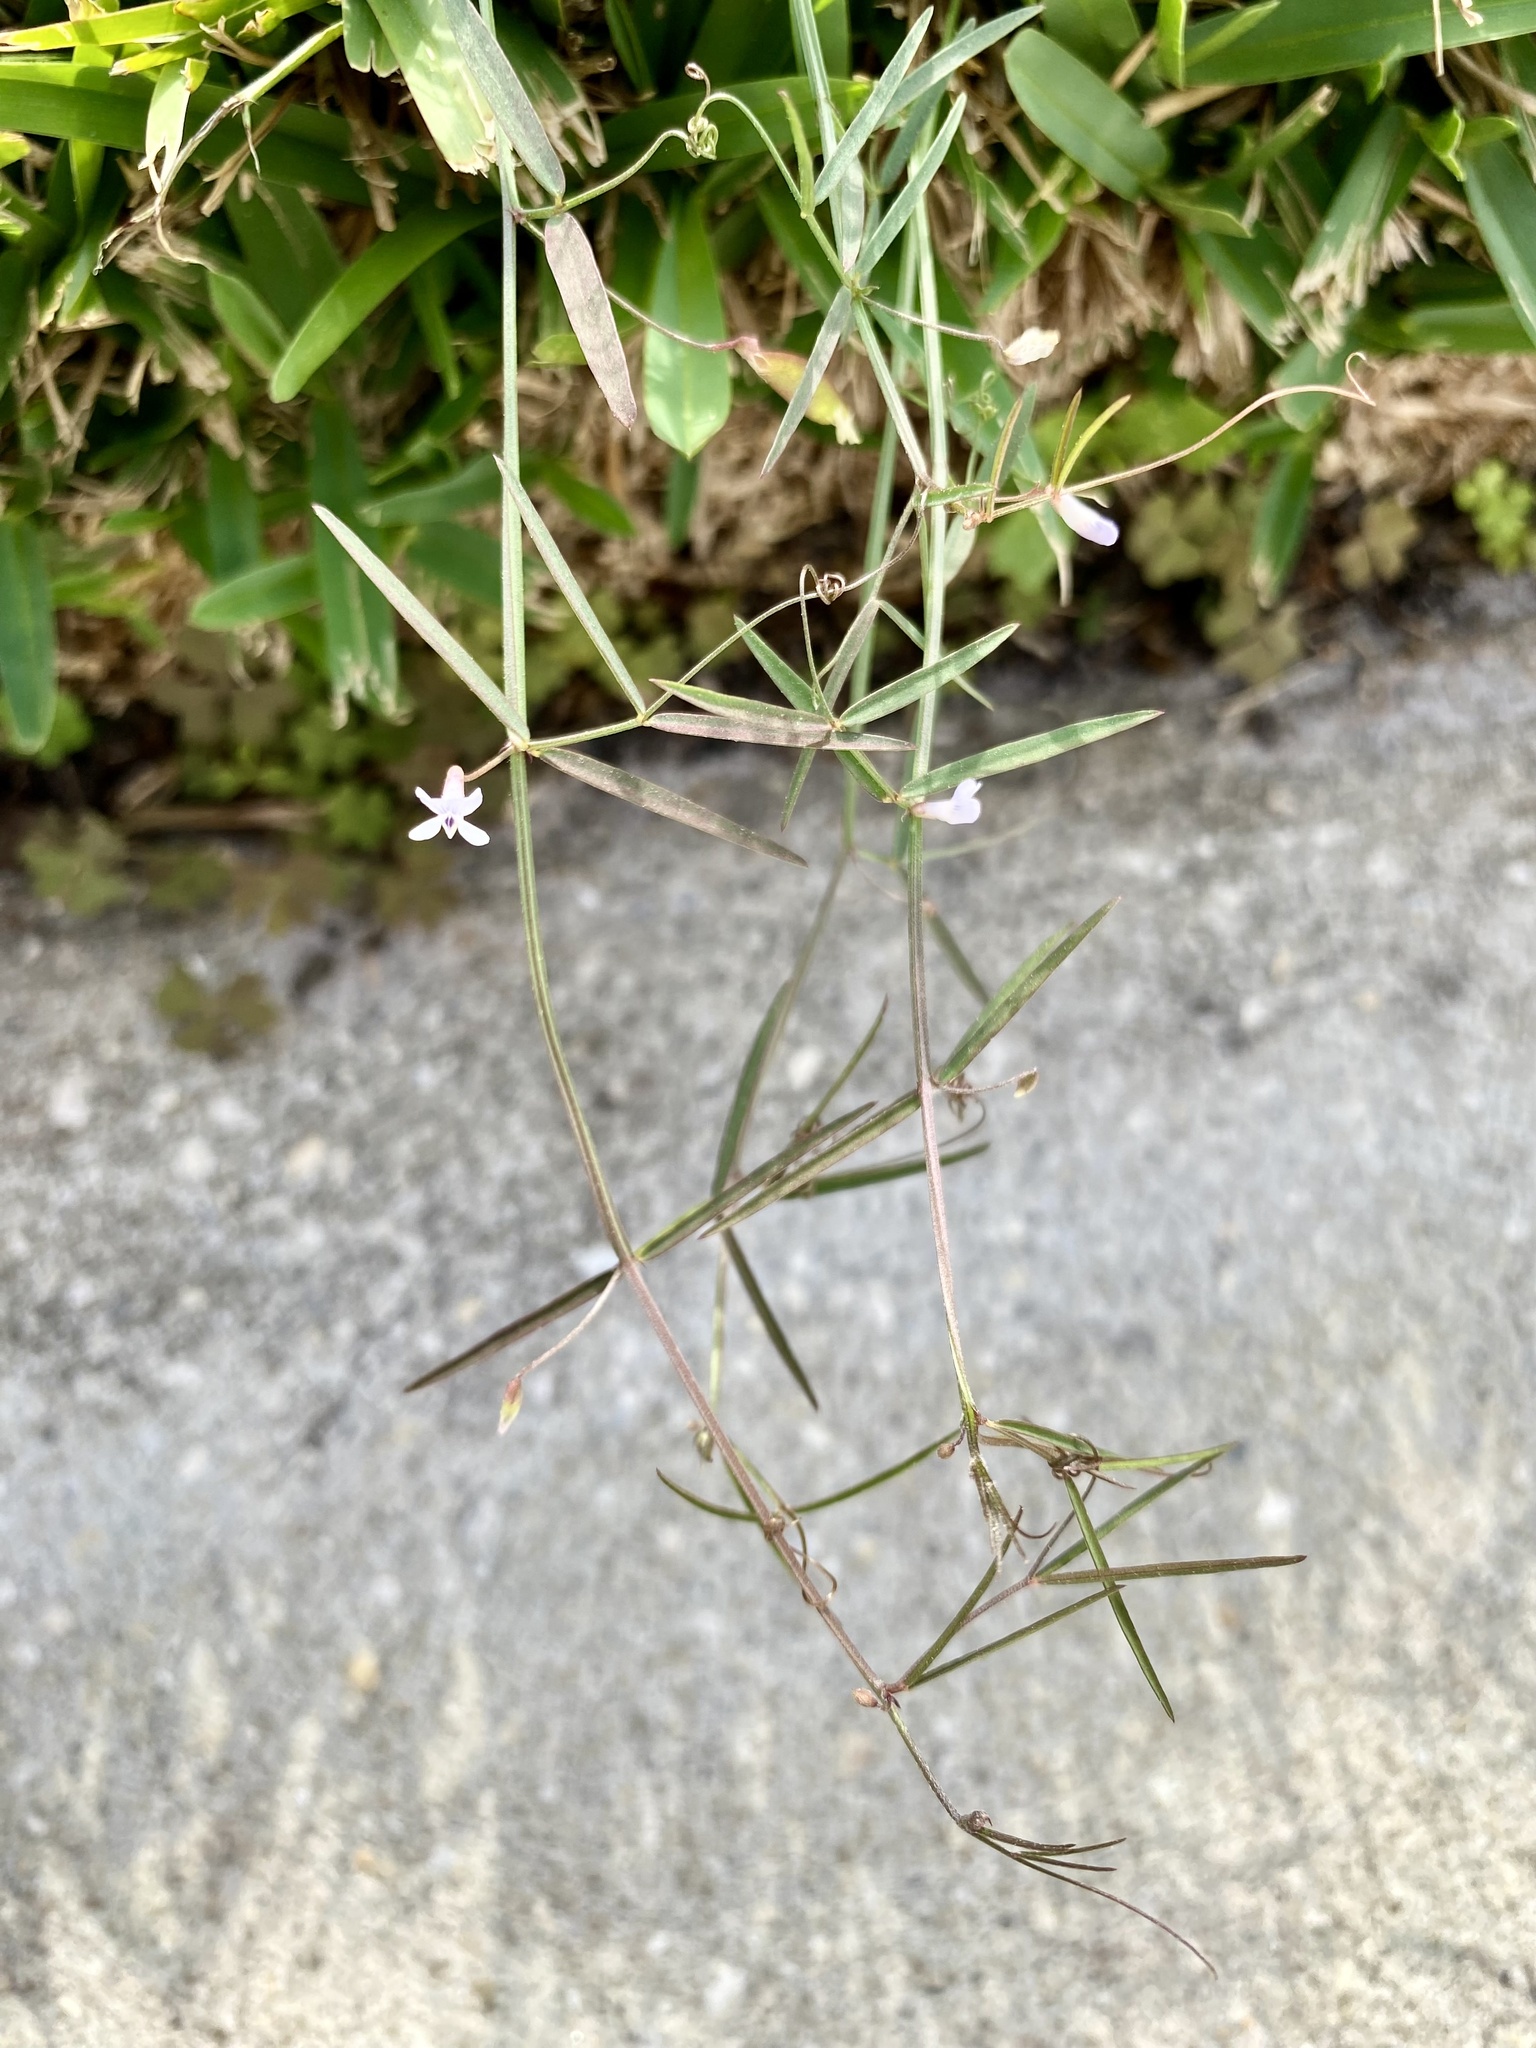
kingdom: Plantae
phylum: Tracheophyta
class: Magnoliopsida
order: Fabales
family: Fabaceae
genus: Vicia
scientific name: Vicia acutifolia
